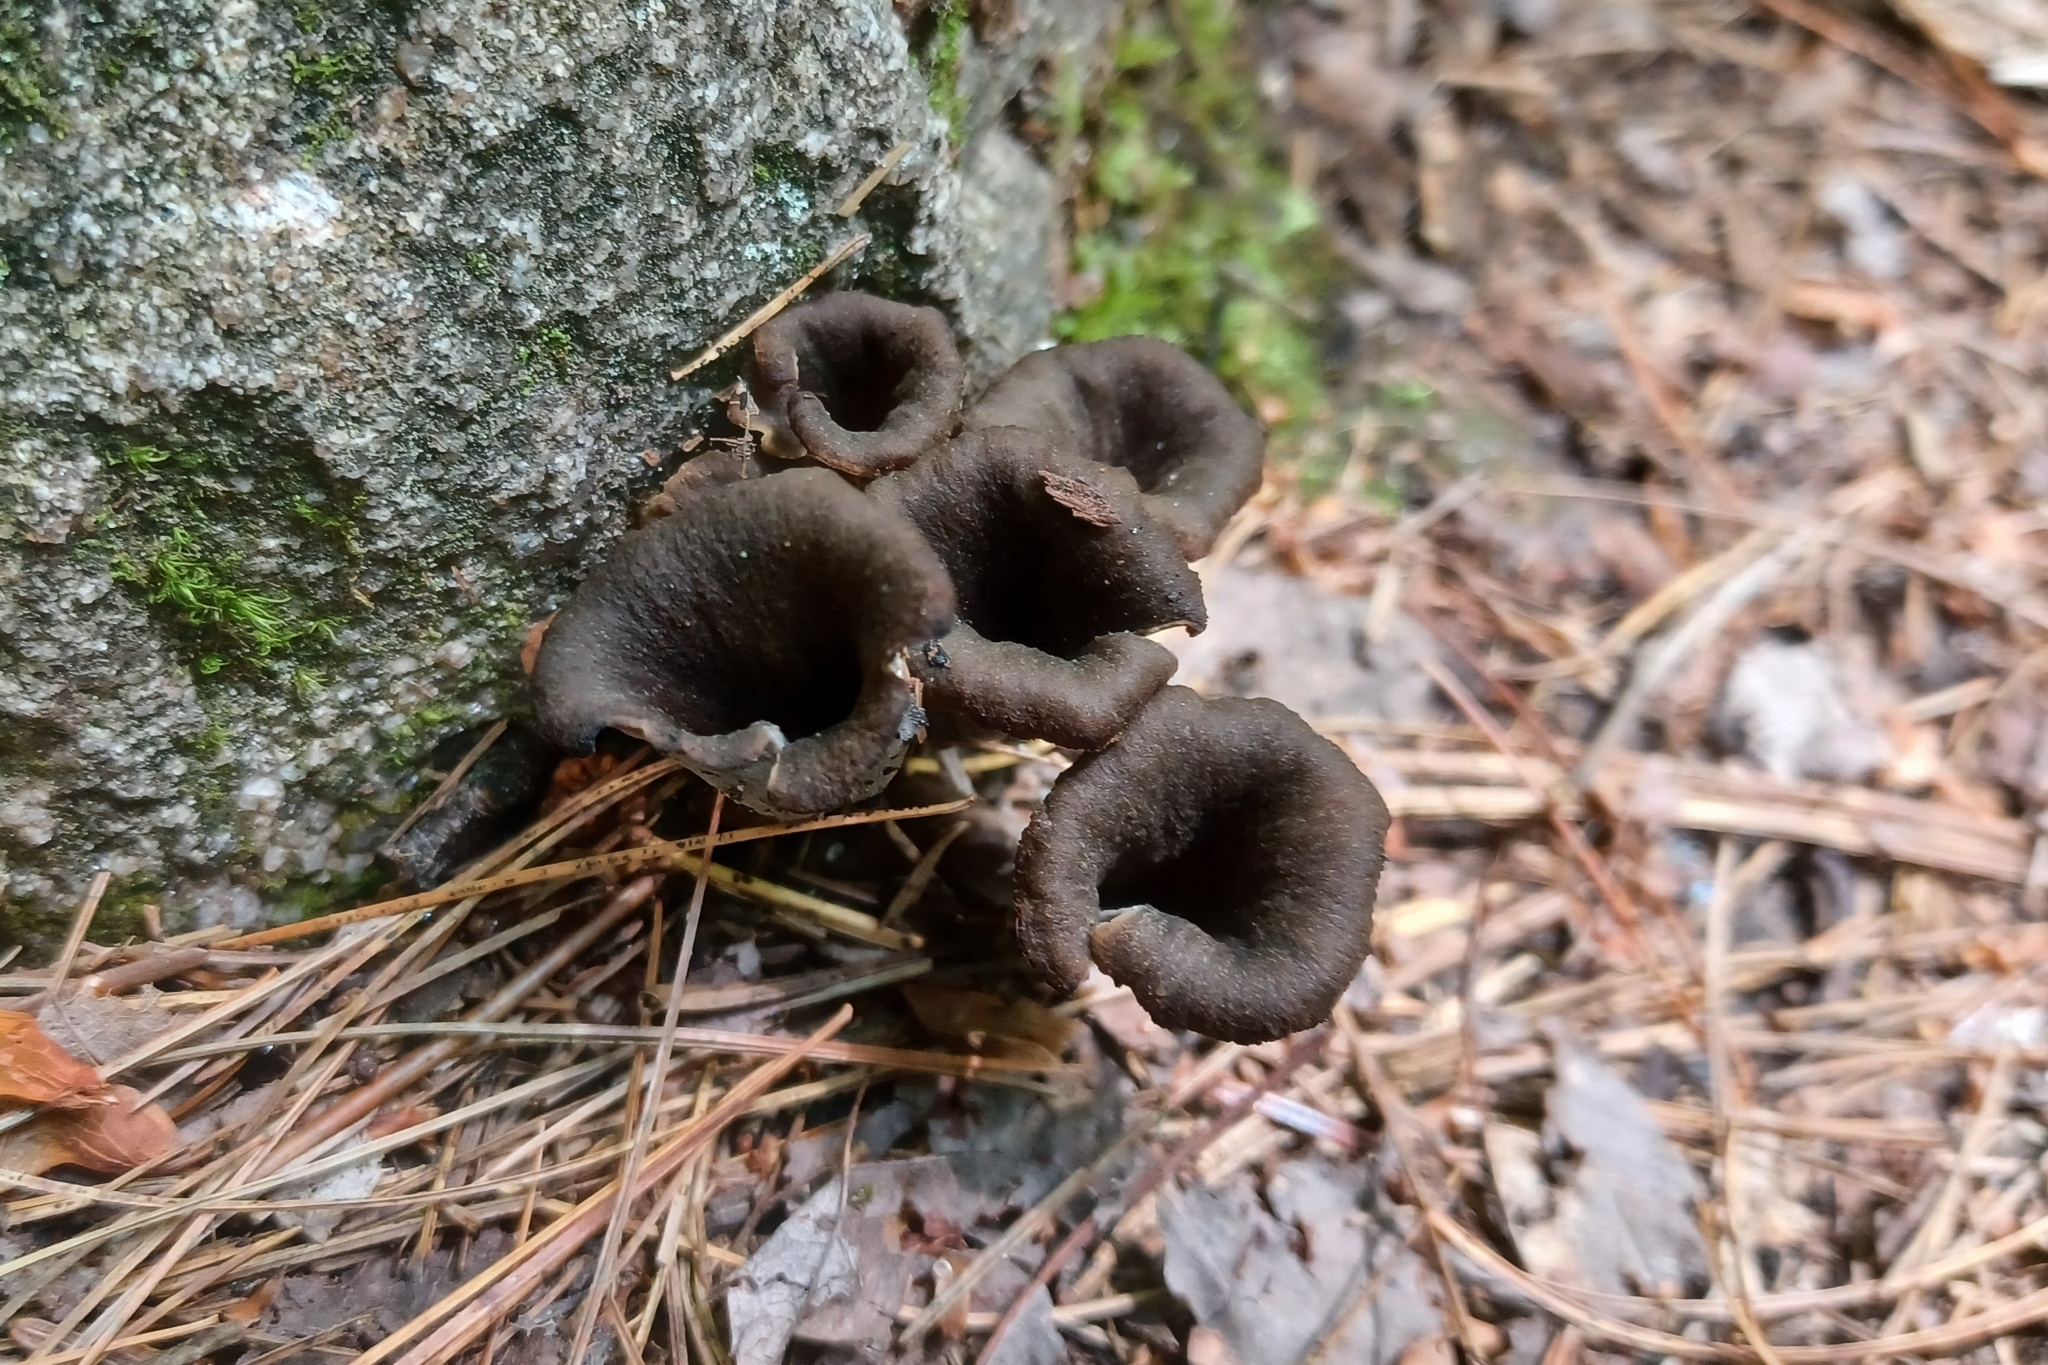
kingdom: Fungi
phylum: Basidiomycota
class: Agaricomycetes
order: Cantharellales
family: Hydnaceae
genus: Craterellus
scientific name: Craterellus cornucopioides
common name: Horn of plenty
